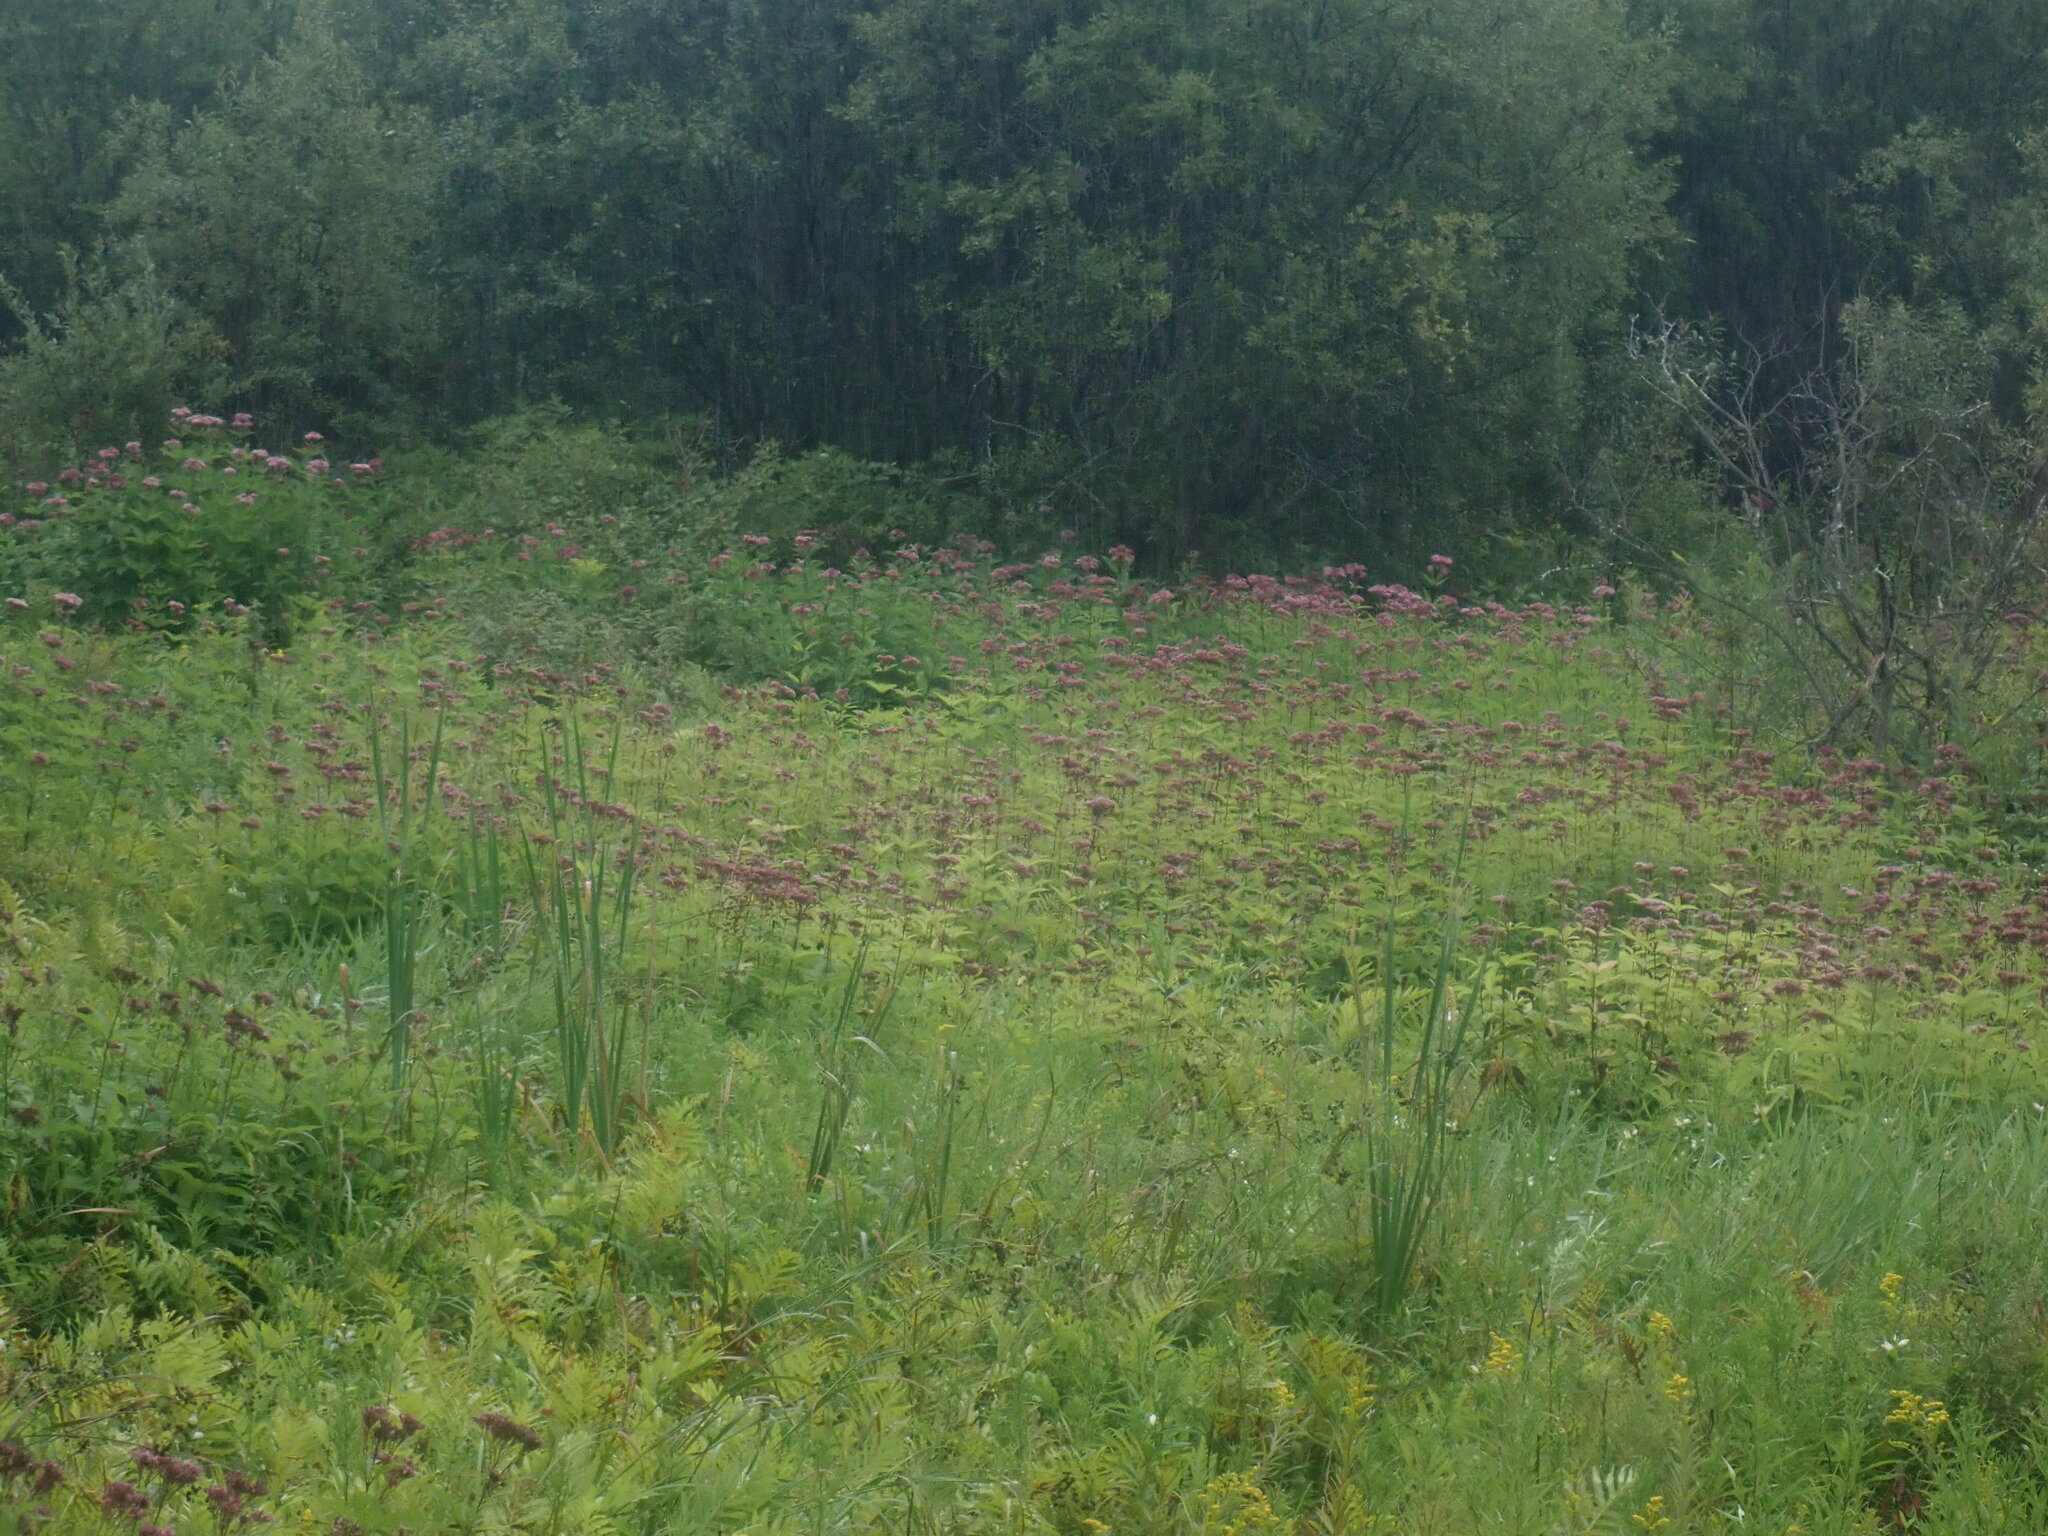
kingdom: Plantae
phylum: Tracheophyta
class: Magnoliopsida
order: Asterales
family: Asteraceae
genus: Eutrochium
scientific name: Eutrochium
